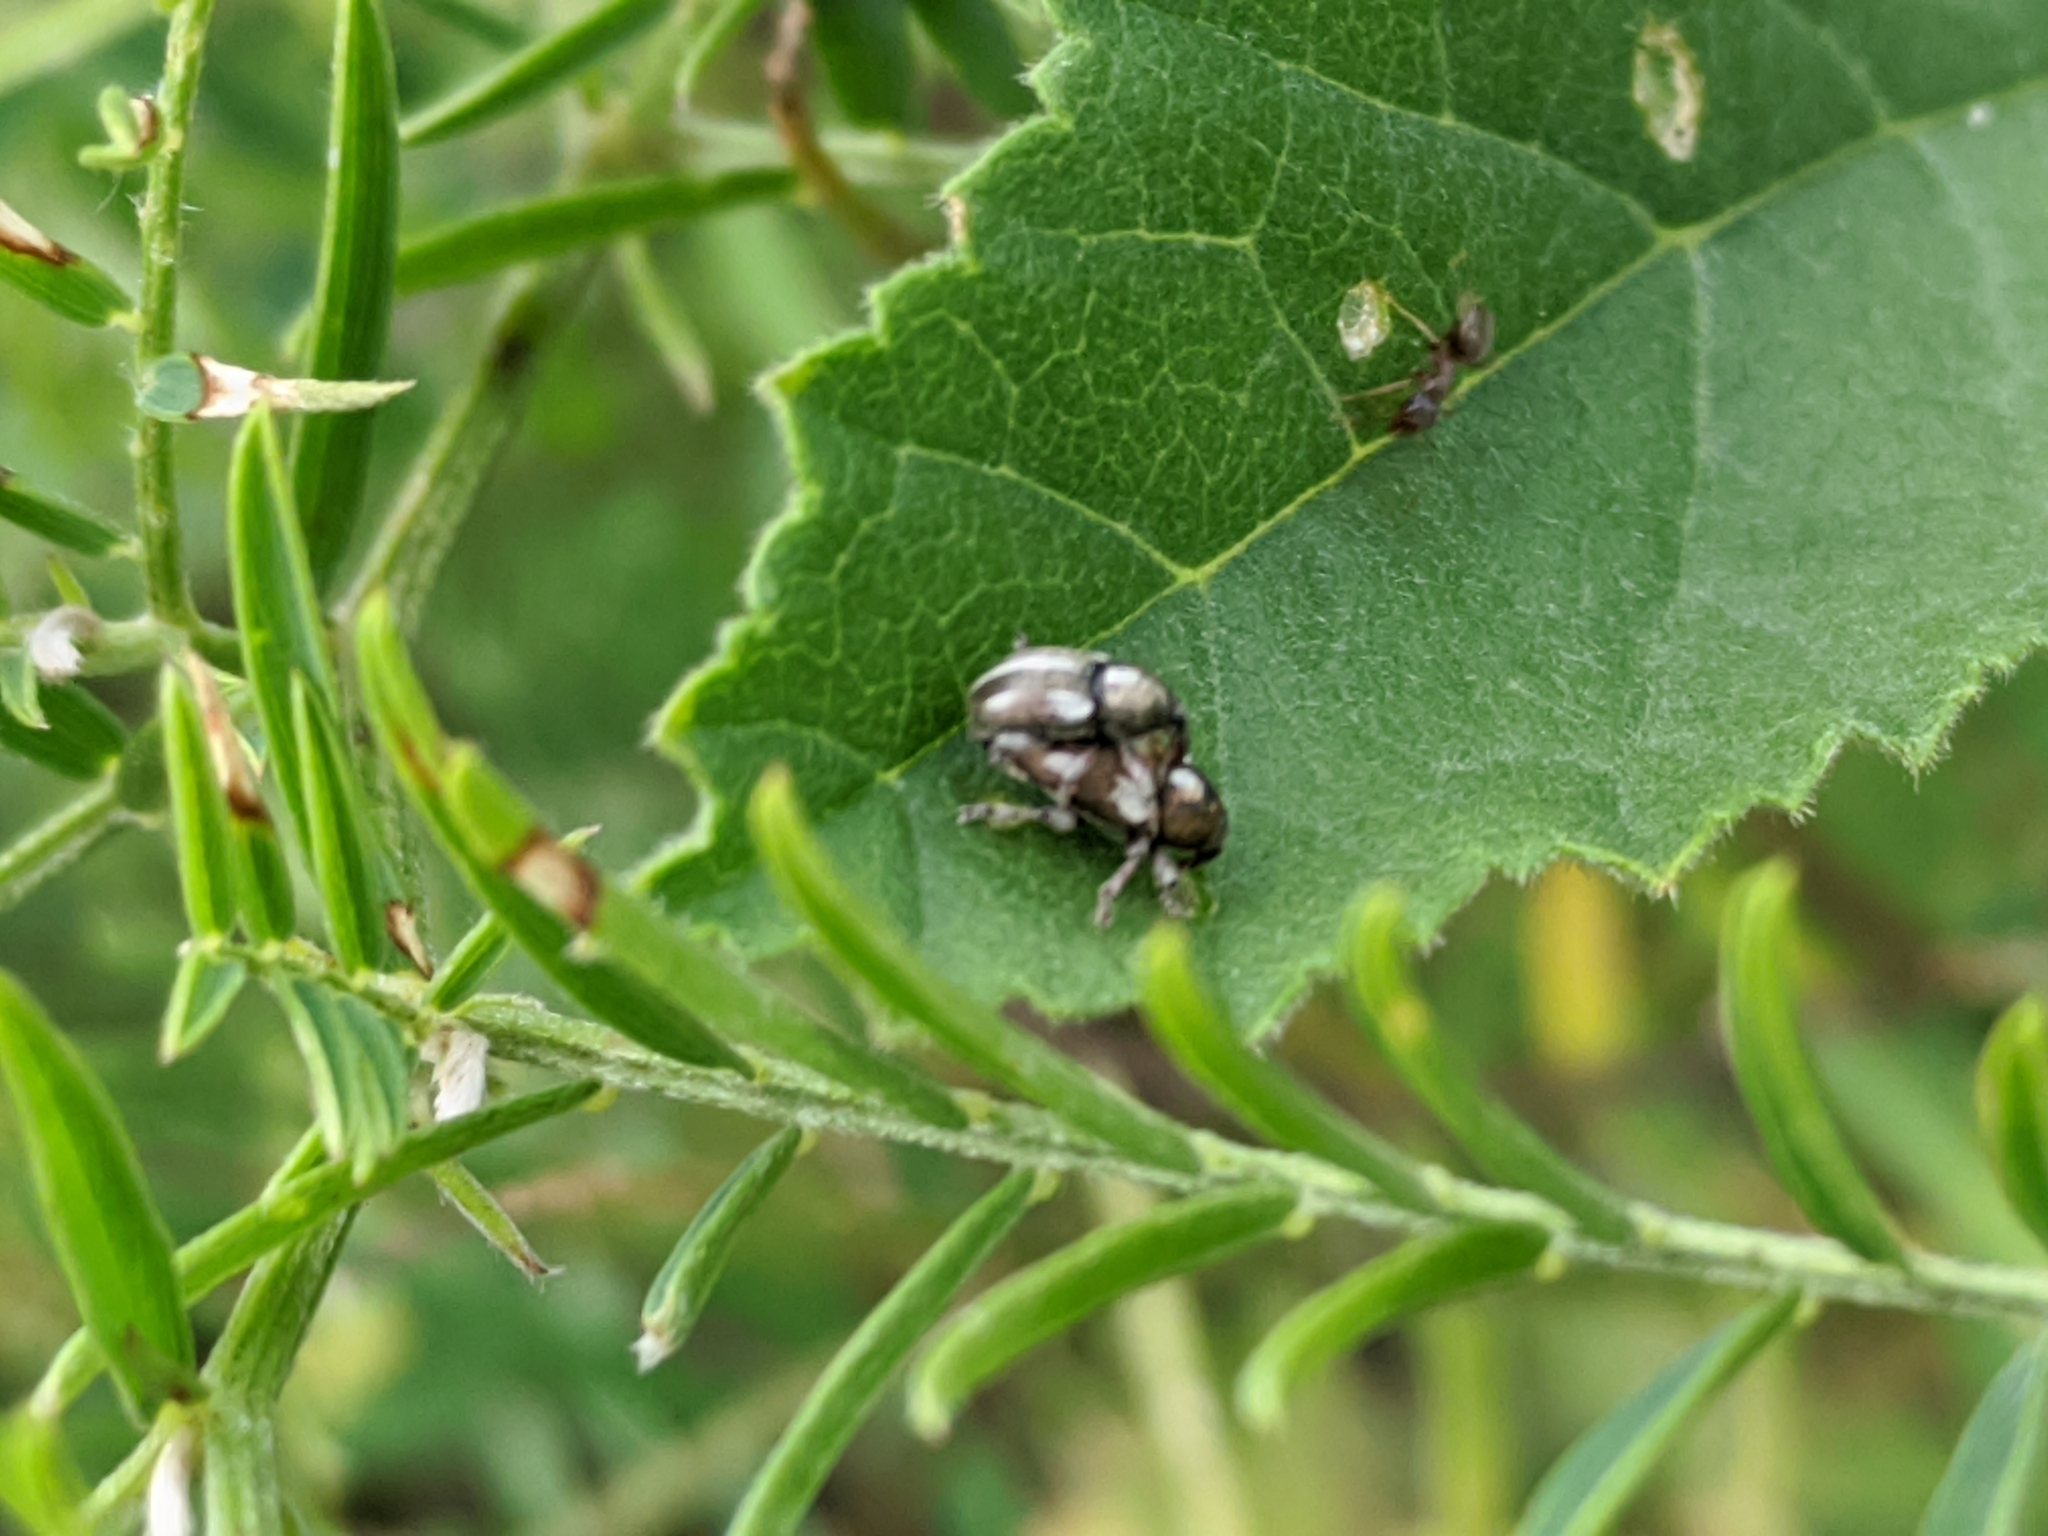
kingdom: Animalia
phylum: Arthropoda
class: Insecta
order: Coleoptera
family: Curculionidae
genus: Tychius
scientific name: Tychius quinquepunctatus
